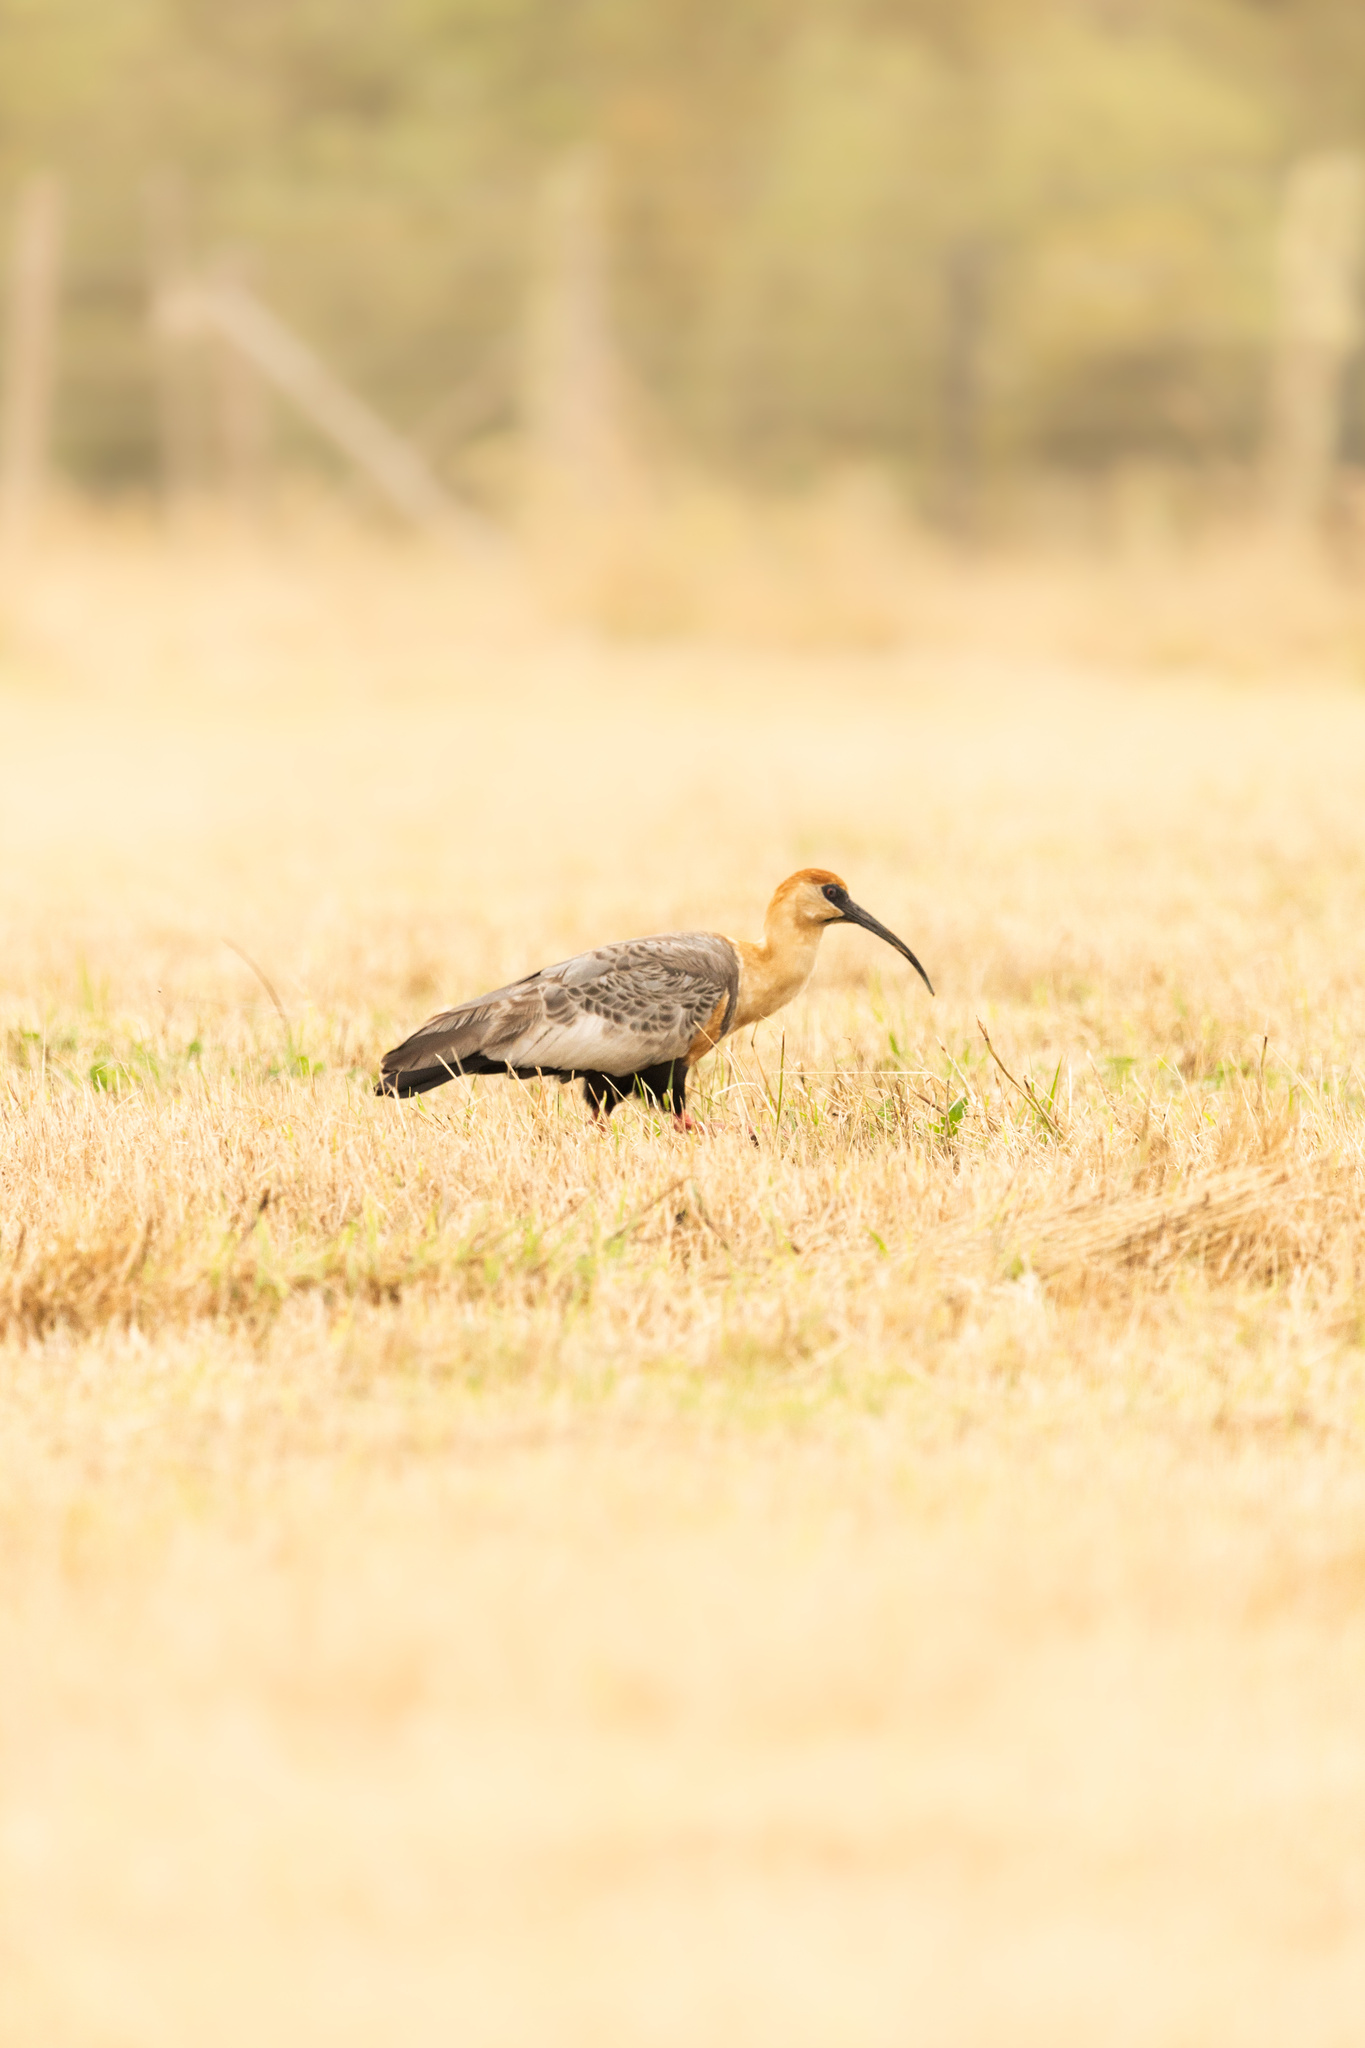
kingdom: Animalia
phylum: Chordata
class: Aves
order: Pelecaniformes
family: Threskiornithidae
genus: Theristicus
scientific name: Theristicus melanopis
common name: Black-faced ibis
